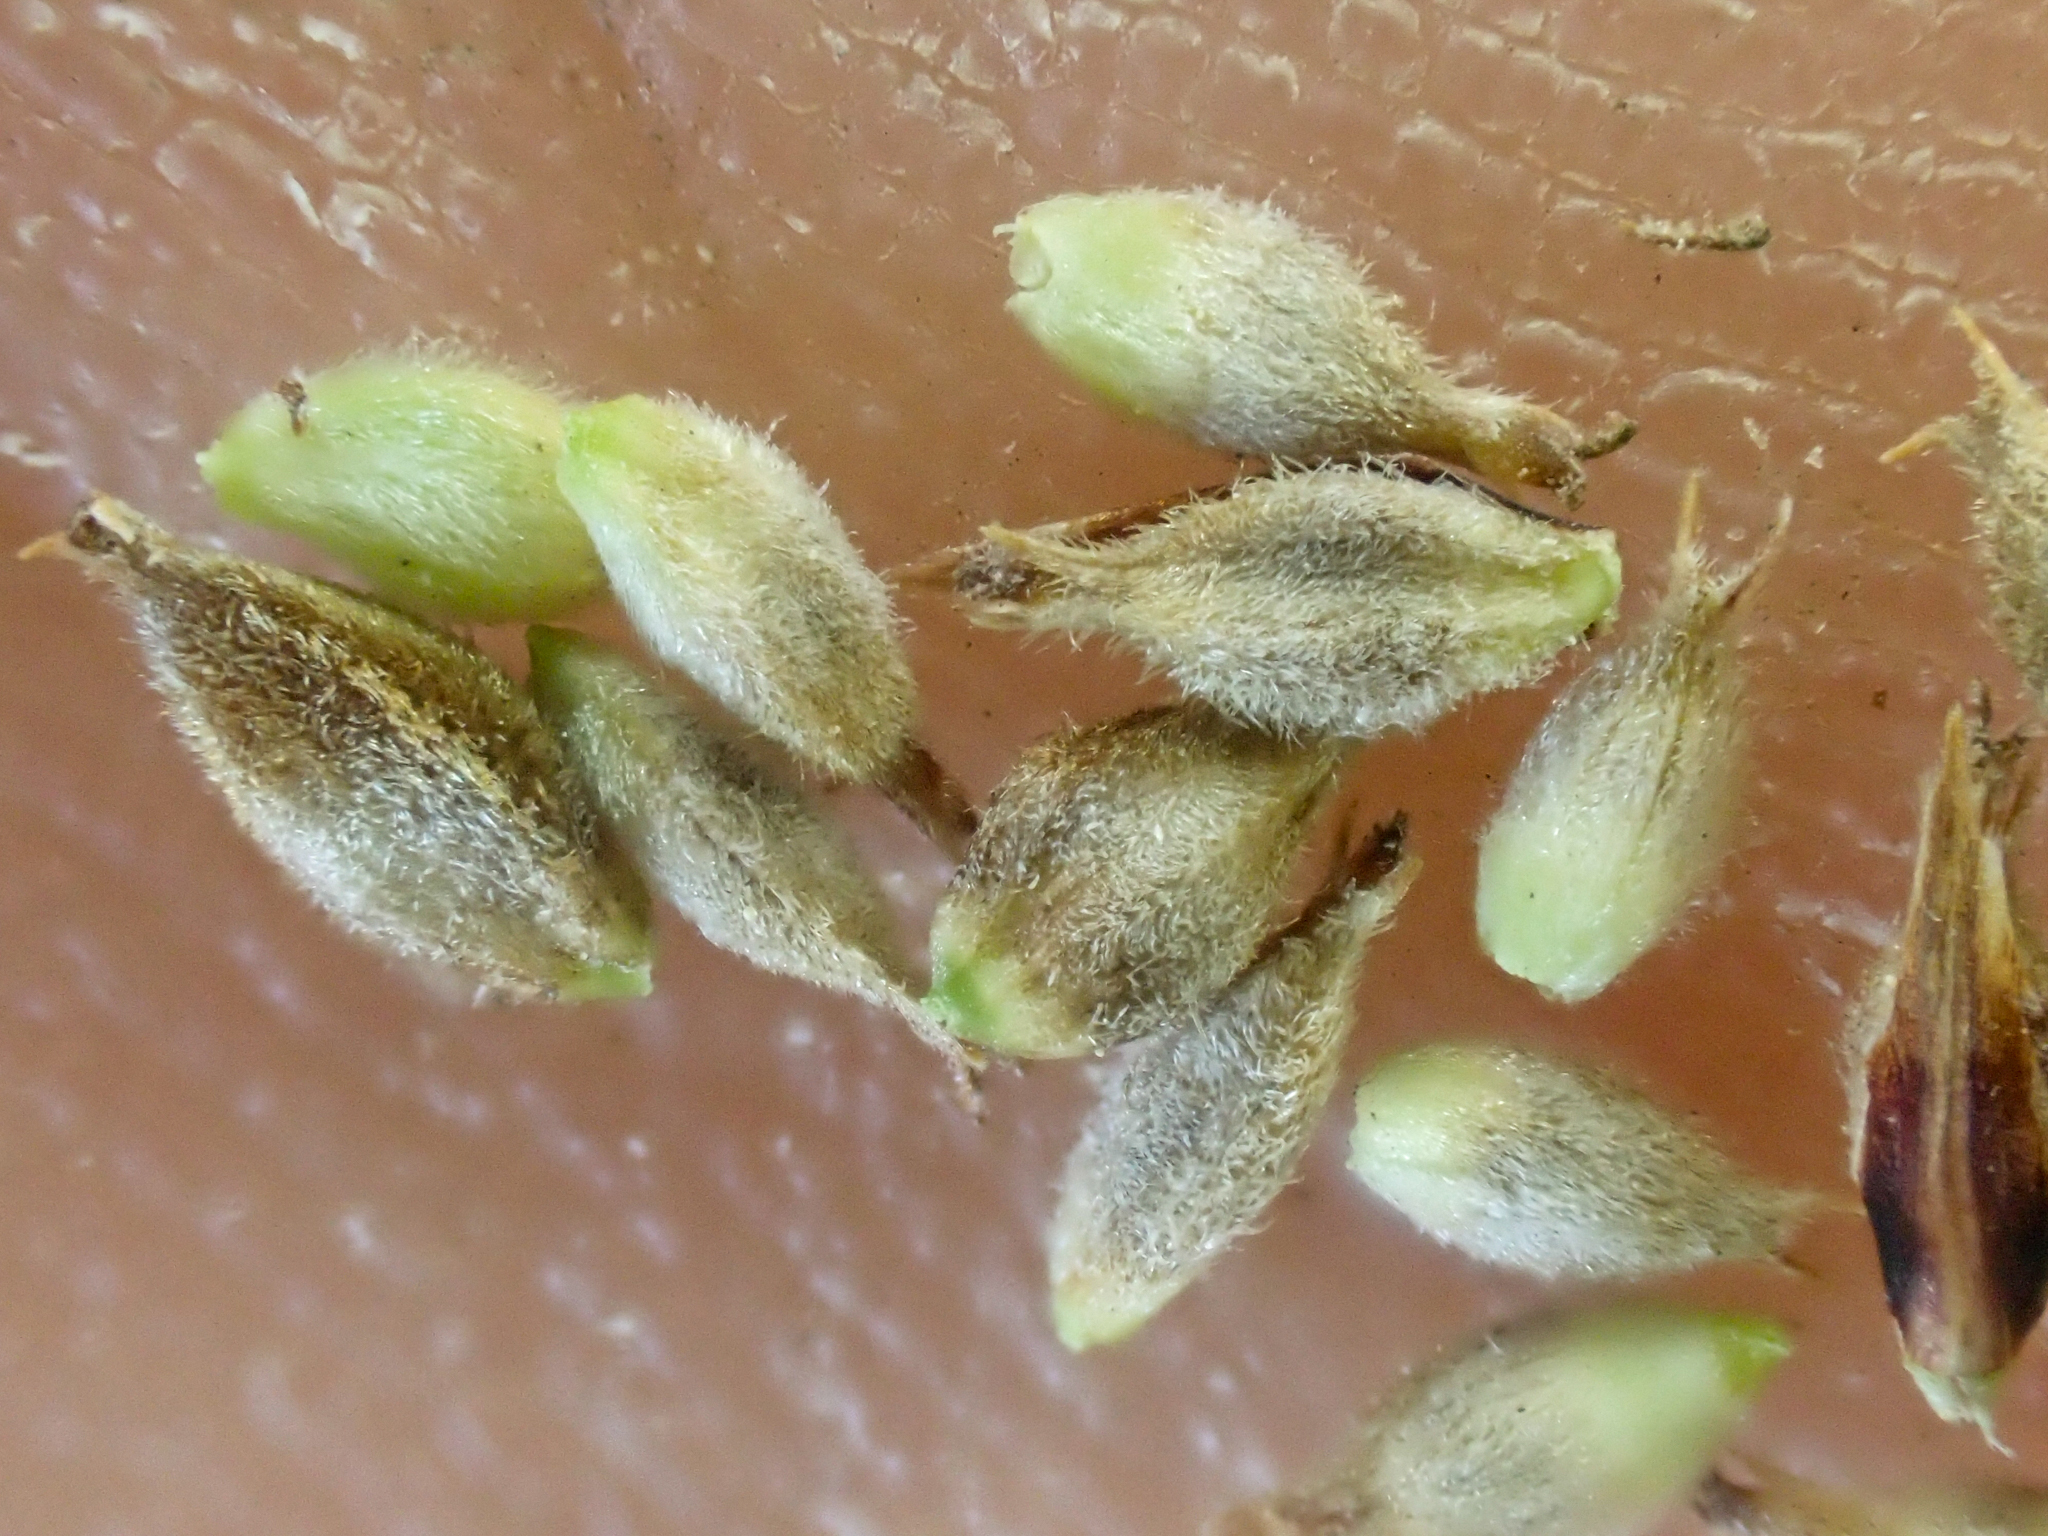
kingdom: Plantae
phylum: Tracheophyta
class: Liliopsida
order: Poales
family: Cyperaceae
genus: Carex
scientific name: Carex lasiocarpa
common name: Slender sedge
